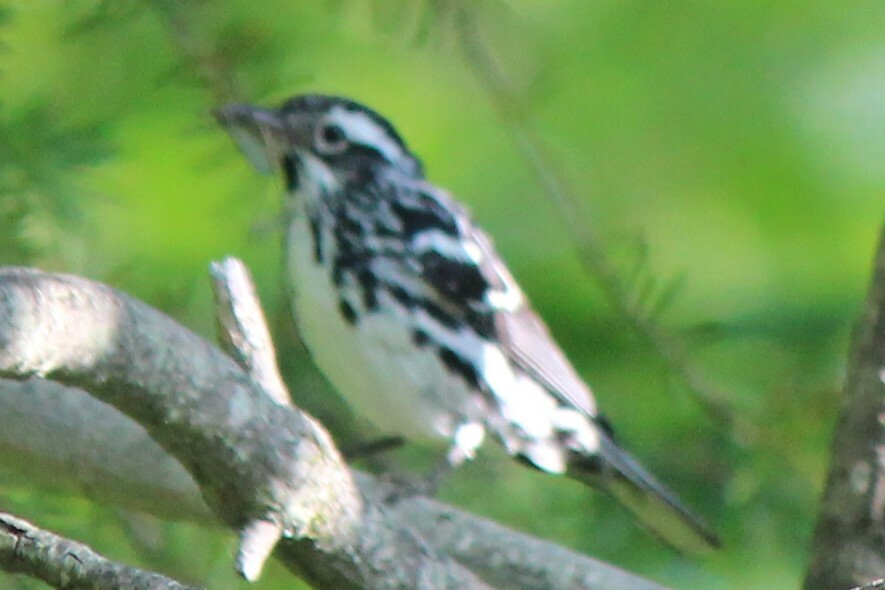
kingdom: Animalia
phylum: Chordata
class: Aves
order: Passeriformes
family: Parulidae
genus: Mniotilta
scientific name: Mniotilta varia
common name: Black-and-white warbler
